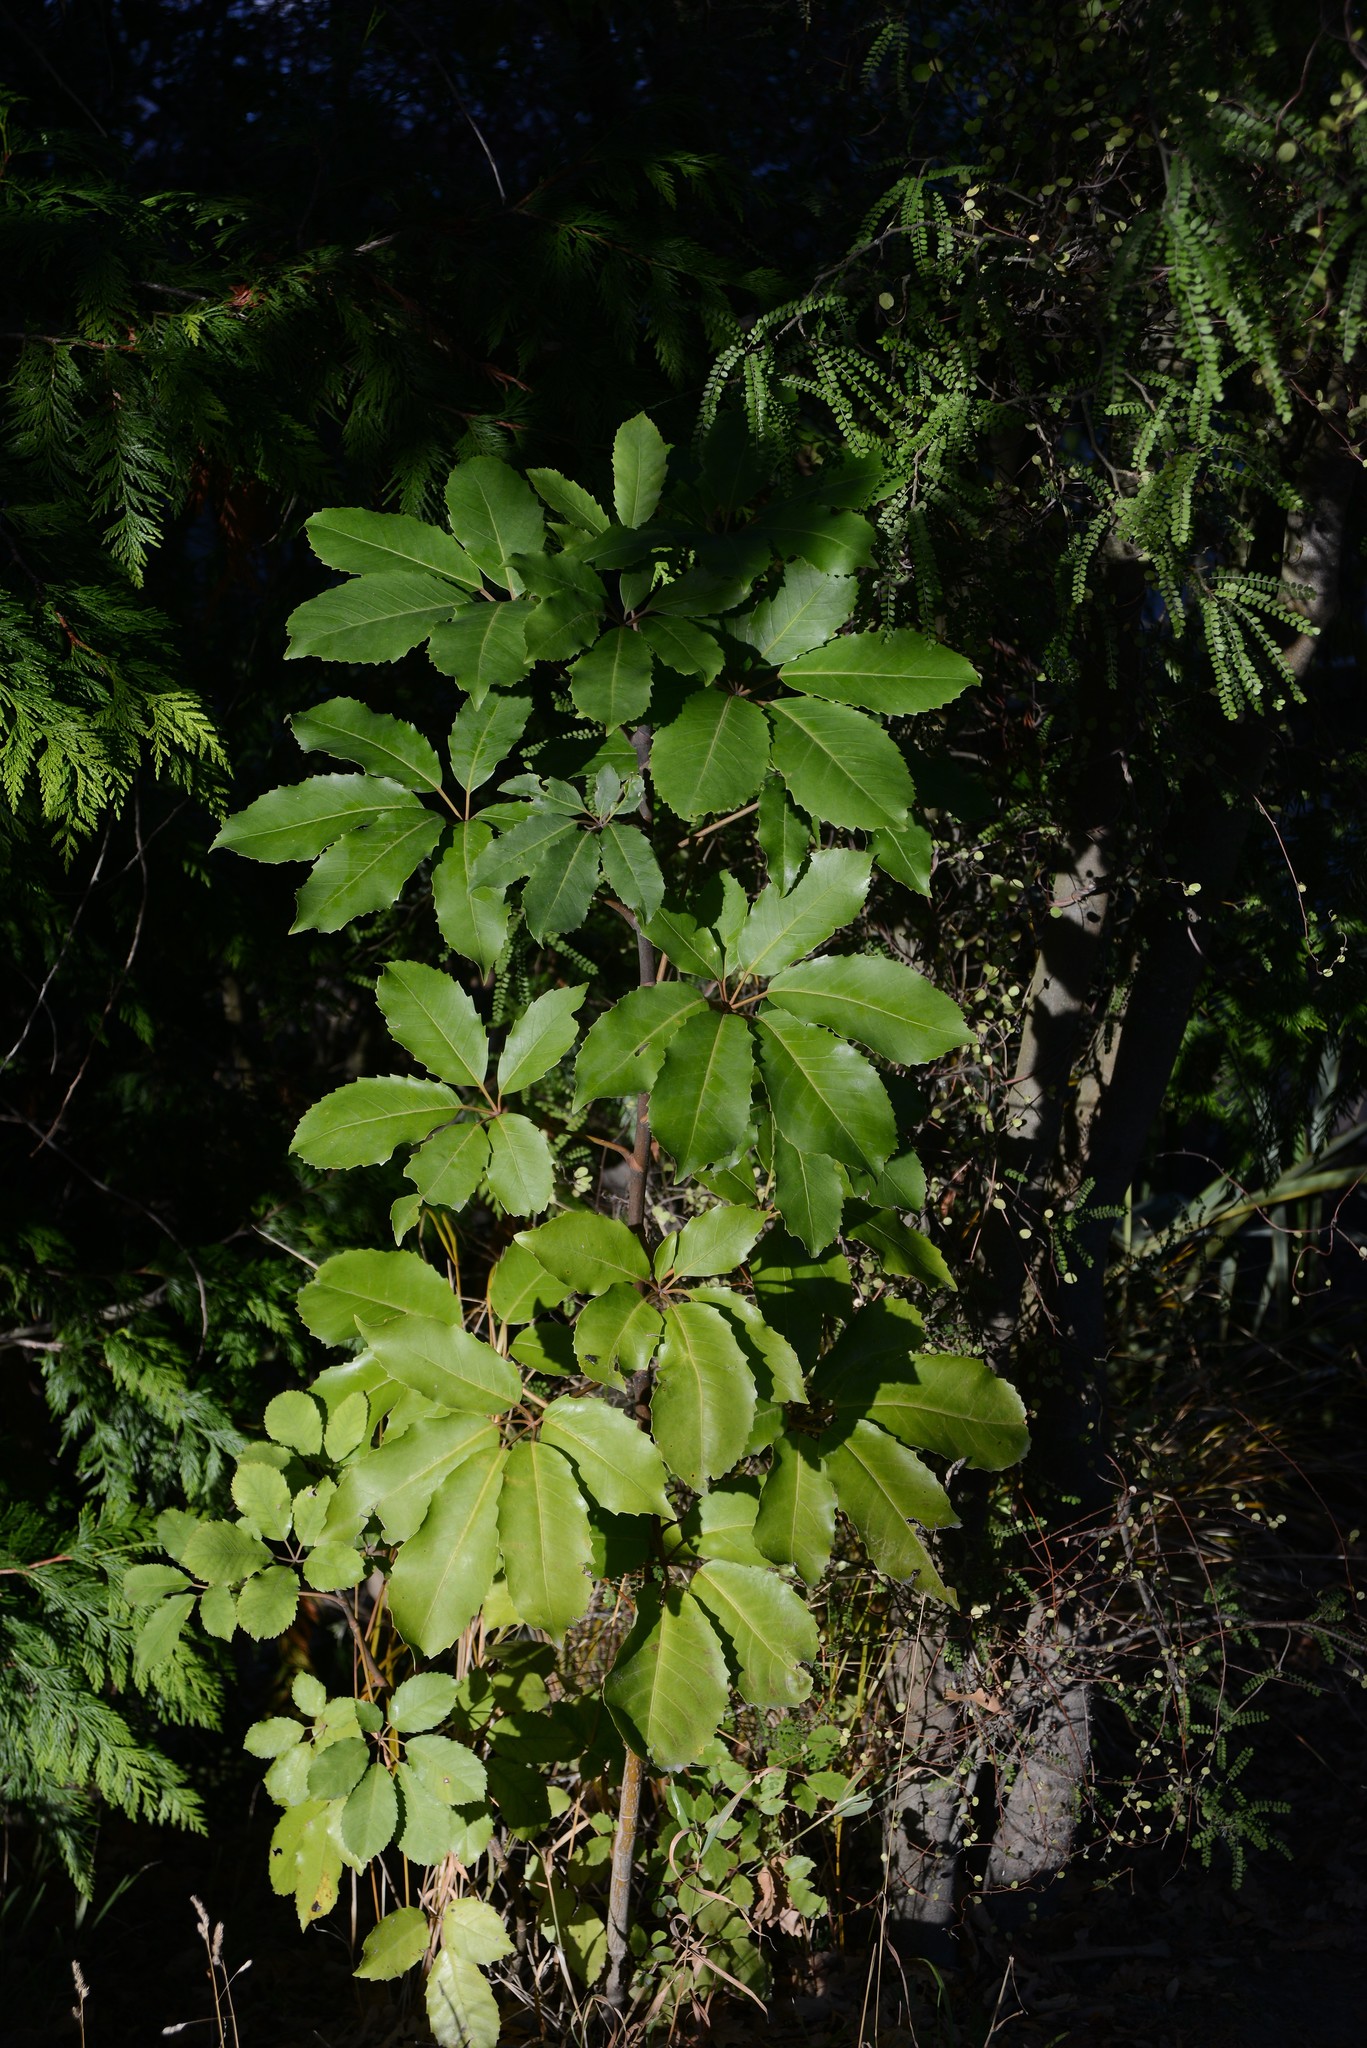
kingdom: Plantae
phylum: Tracheophyta
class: Magnoliopsida
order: Apiales
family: Araliaceae
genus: Neopanax
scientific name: Neopanax arboreus
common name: Five-fingers
